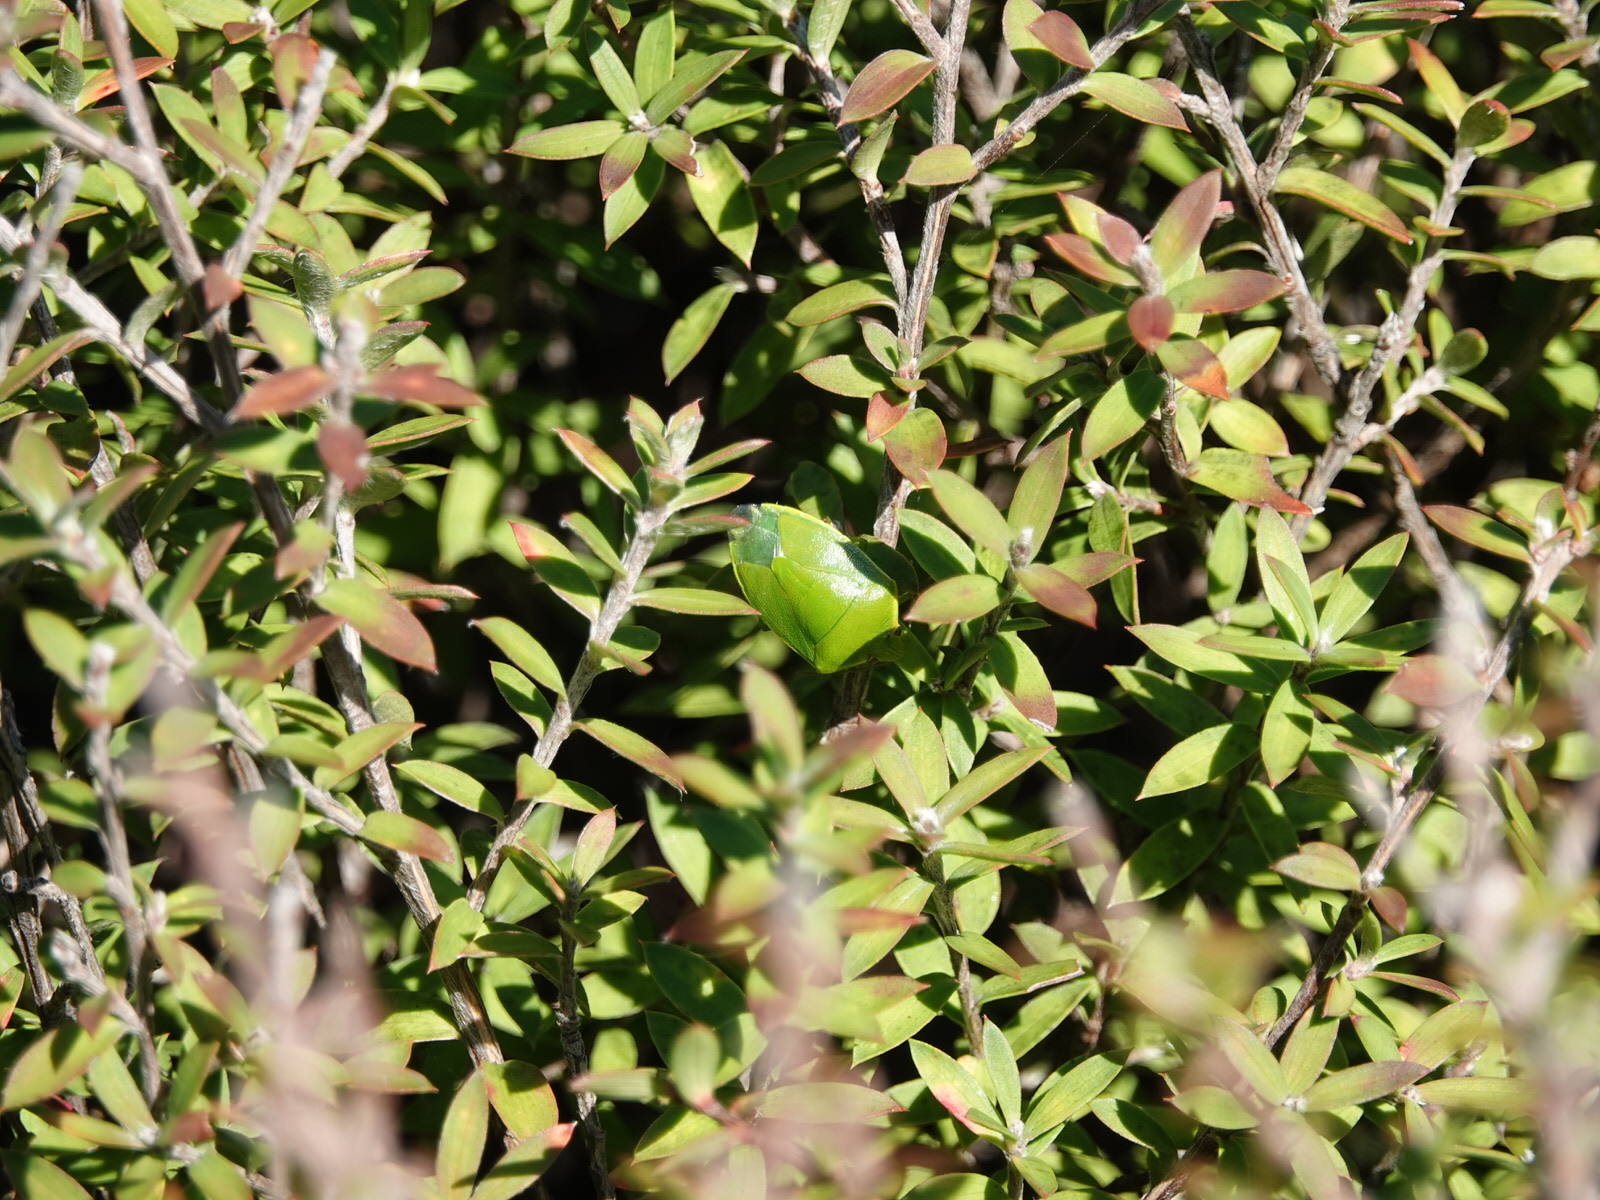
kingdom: Animalia
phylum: Arthropoda
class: Insecta
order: Hemiptera
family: Pentatomidae
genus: Glaucias
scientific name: Glaucias amyota
